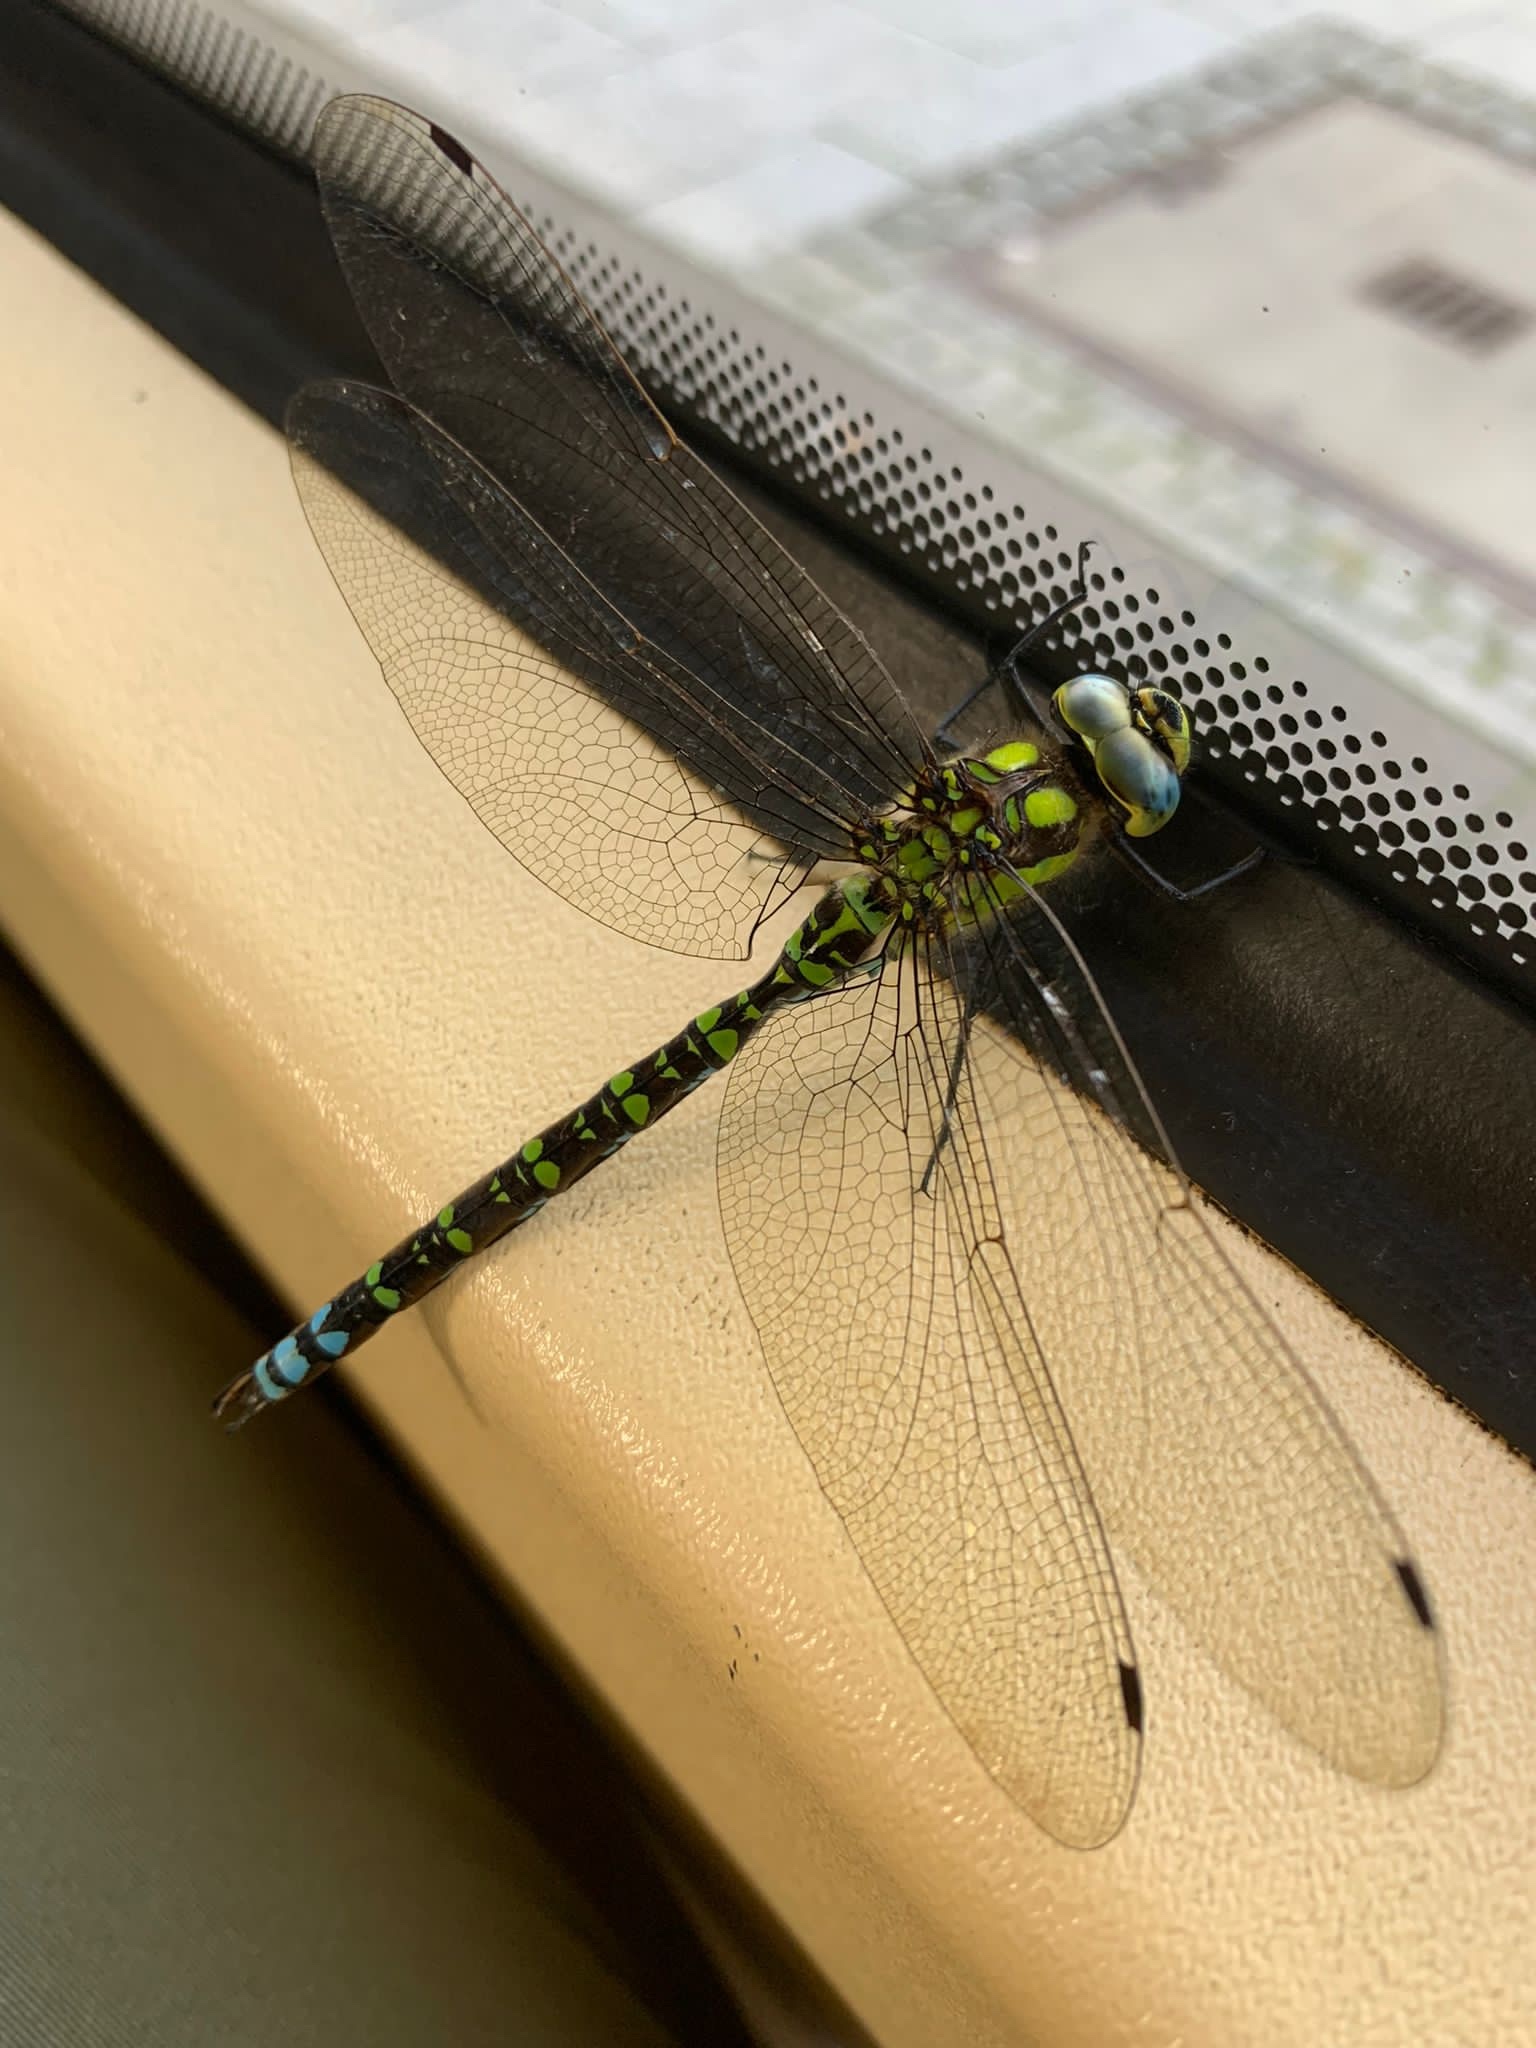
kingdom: Animalia
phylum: Arthropoda
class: Insecta
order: Odonata
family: Aeshnidae
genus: Aeshna
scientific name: Aeshna cyanea
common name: Southern hawker
